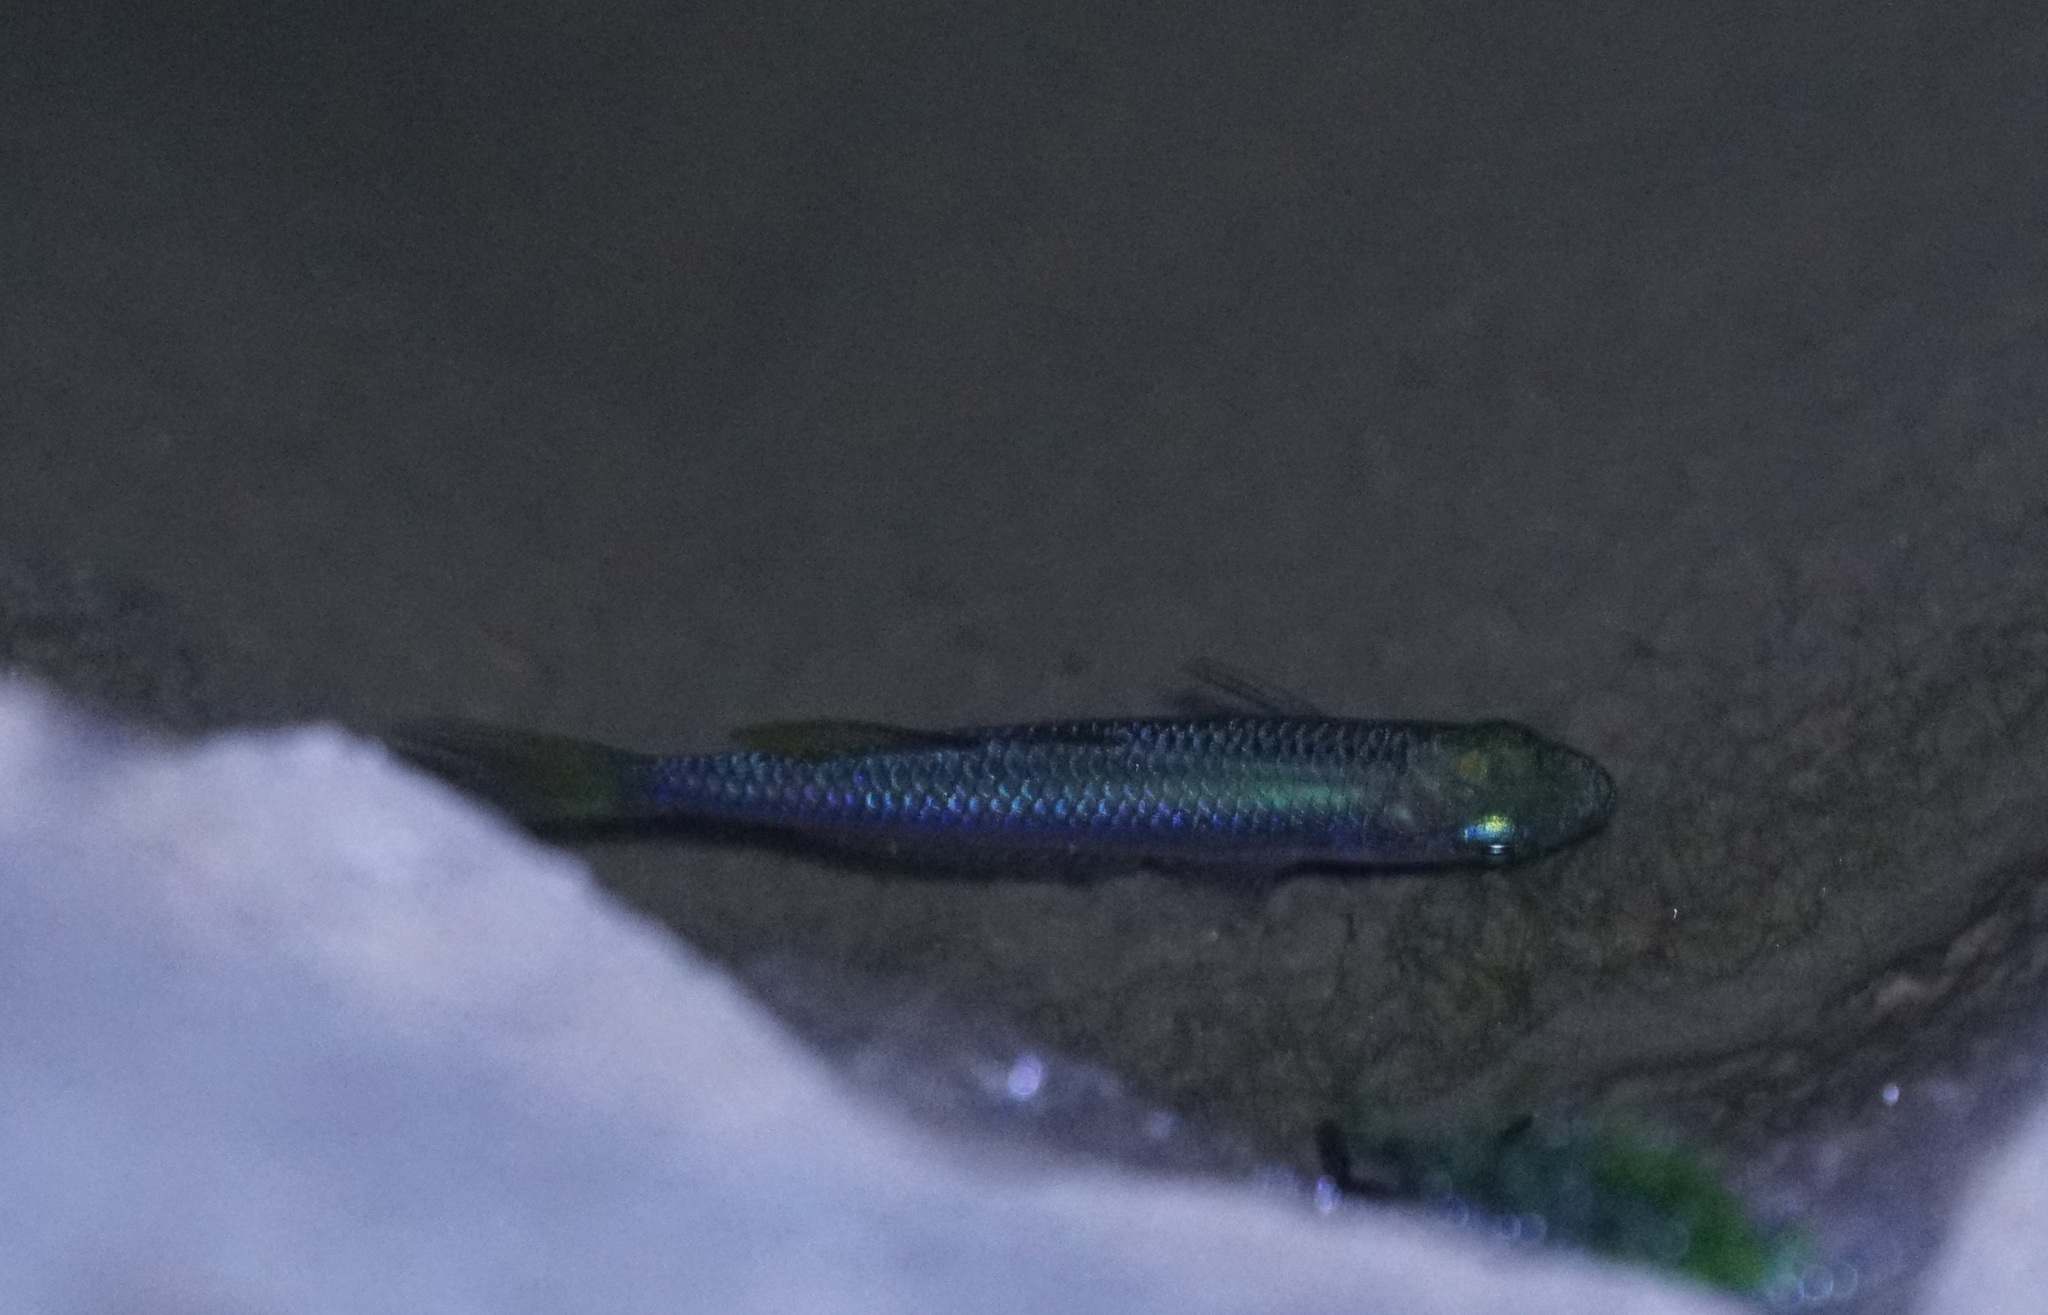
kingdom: Animalia
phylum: Chordata
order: Atheriniformes
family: Melanotaeniidae
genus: Melanotaenia
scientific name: Melanotaenia splendida
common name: Checkered rainbowfish
